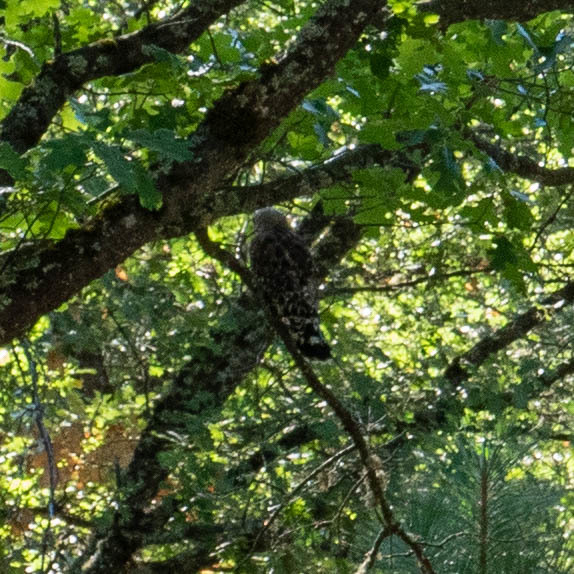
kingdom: Animalia
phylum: Chordata
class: Aves
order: Accipitriformes
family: Accipitridae
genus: Buteo
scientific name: Buteo lineatus
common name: Red-shouldered hawk
